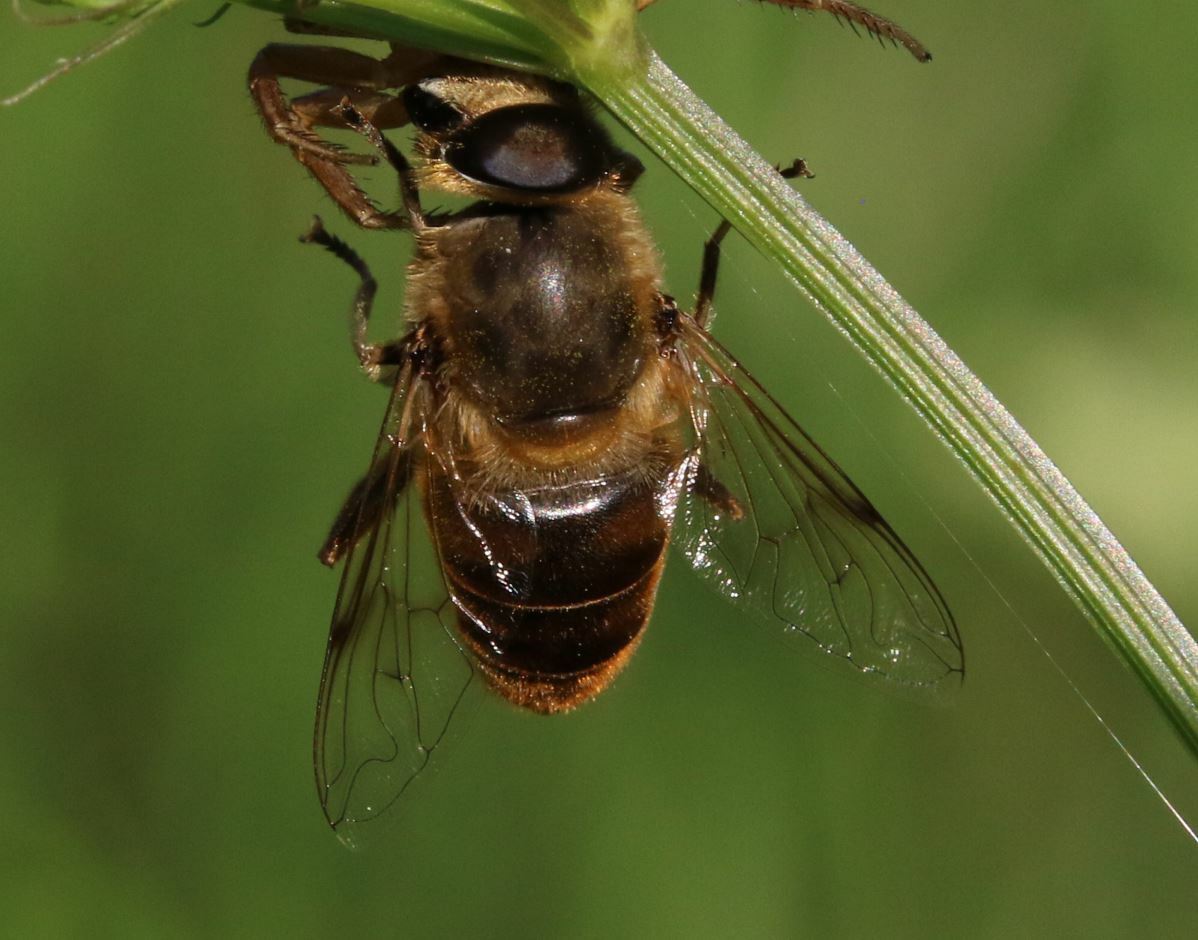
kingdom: Animalia
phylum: Arthropoda
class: Insecta
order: Diptera
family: Syrphidae
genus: Eristalis
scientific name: Eristalis tenax
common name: Drone fly
